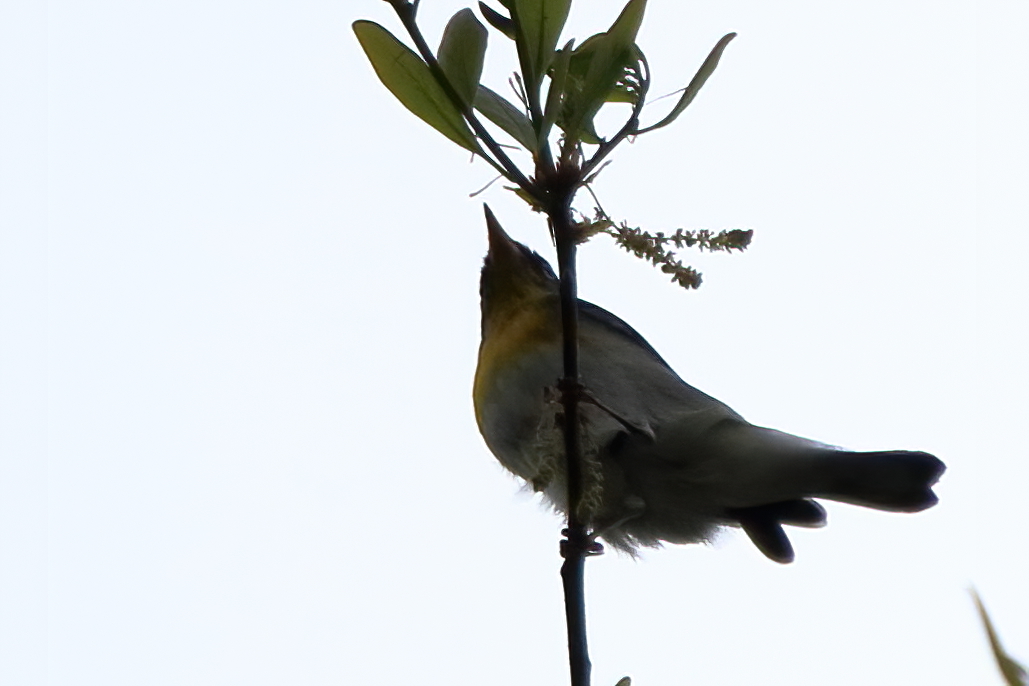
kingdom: Animalia
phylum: Chordata
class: Aves
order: Passeriformes
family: Parulidae
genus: Setophaga
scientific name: Setophaga americana
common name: Northern parula
